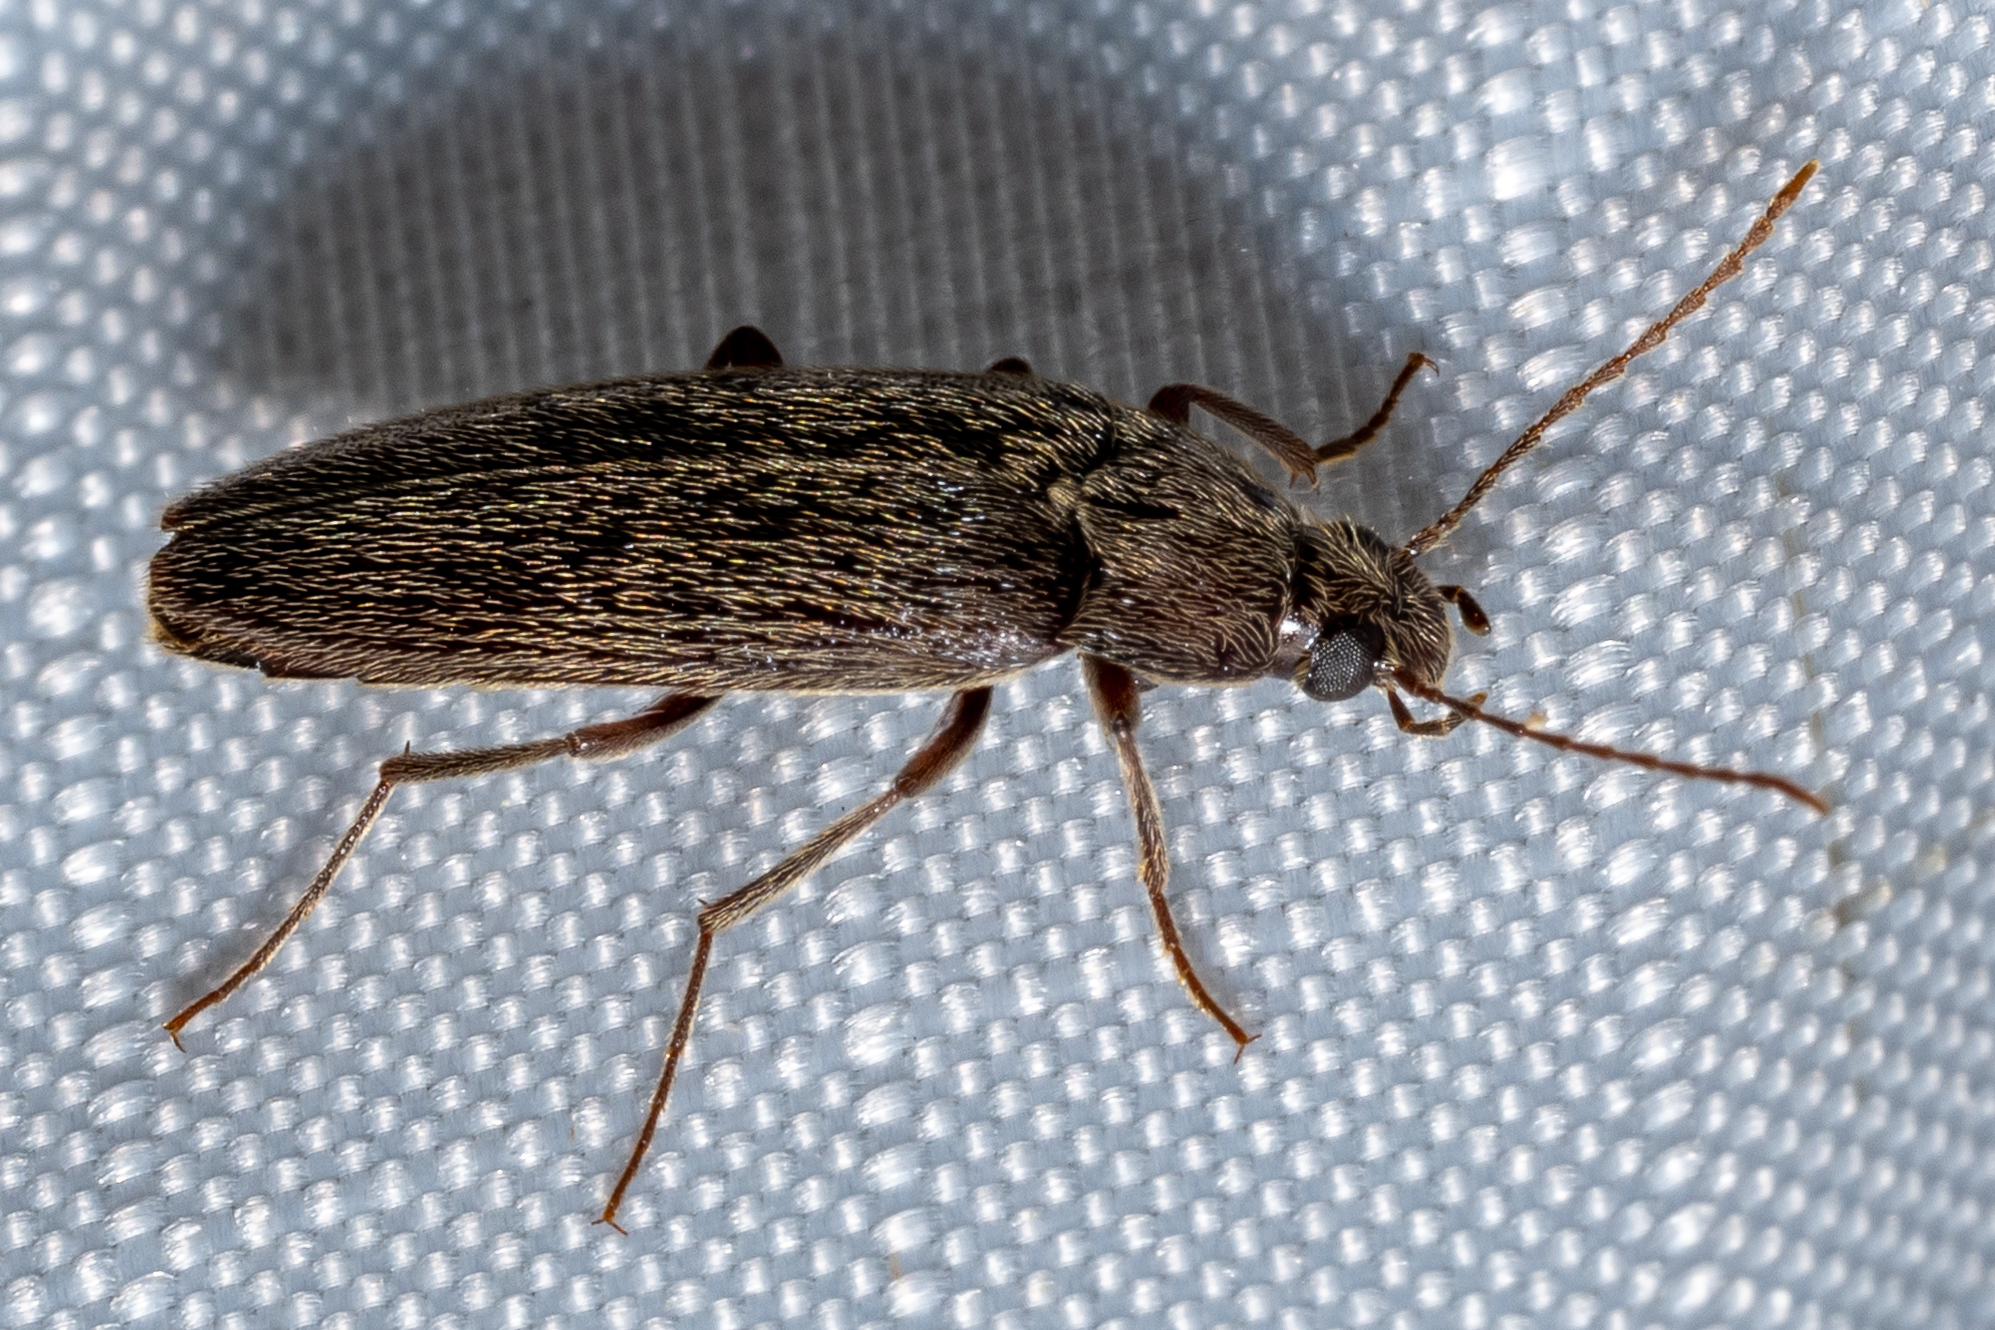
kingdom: Animalia
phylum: Arthropoda
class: Insecta
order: Coleoptera
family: Synchroidae
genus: Synchroa
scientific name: Synchroa punctata
